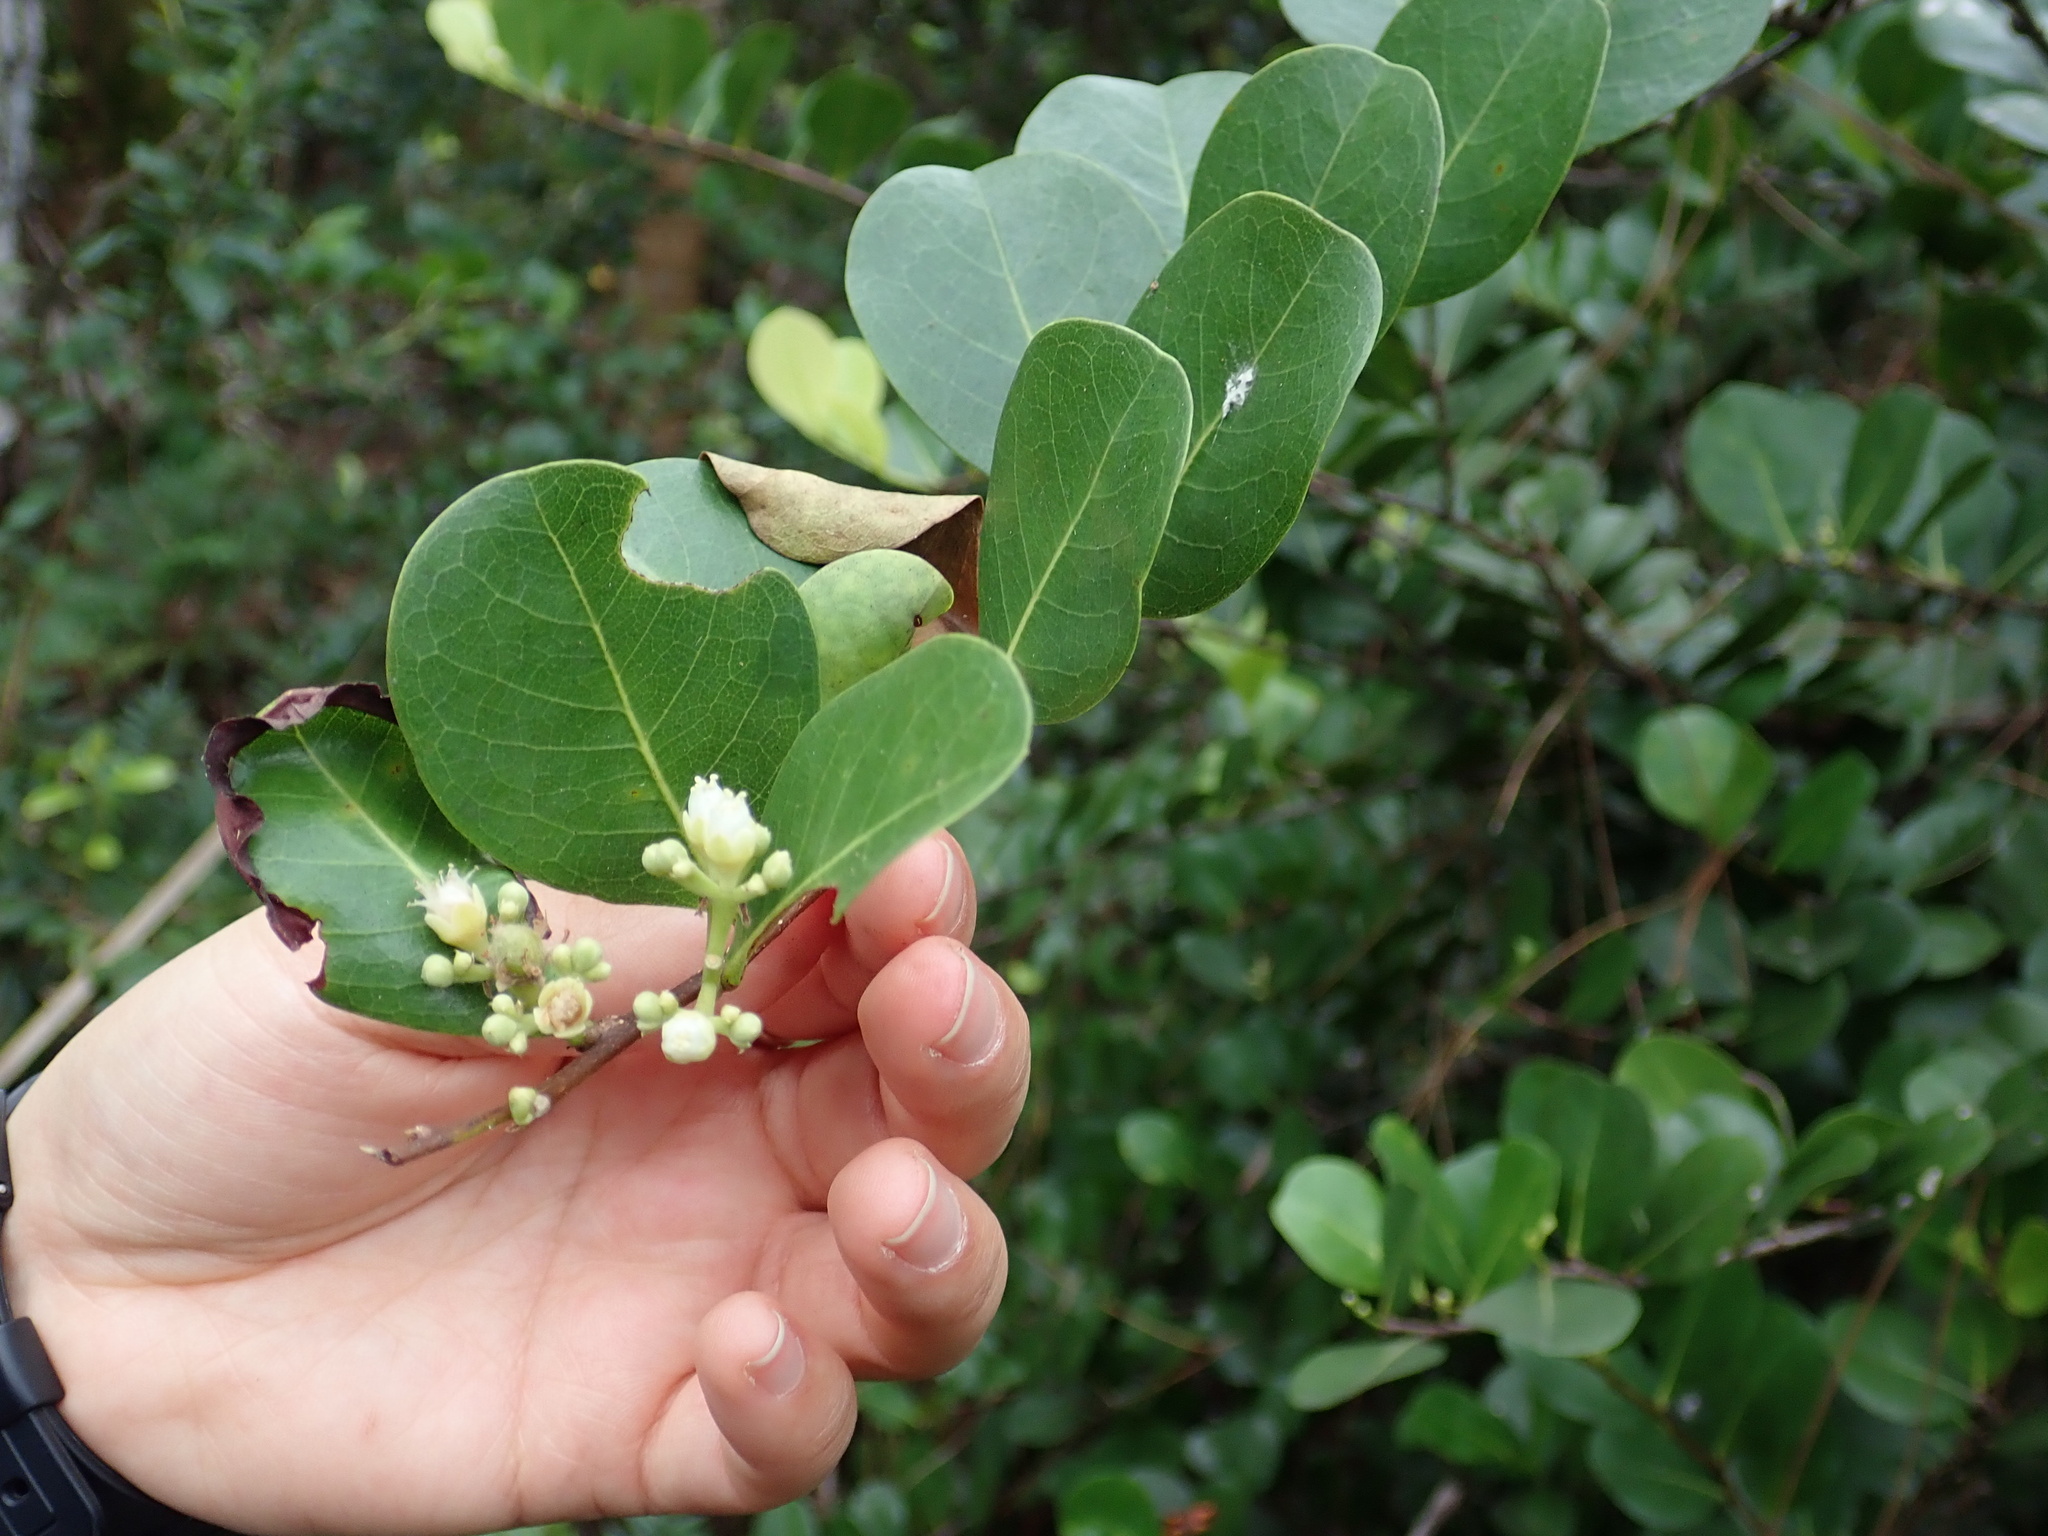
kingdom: Plantae
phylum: Tracheophyta
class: Magnoliopsida
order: Malpighiales
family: Chrysobalanaceae
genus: Chrysobalanus
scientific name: Chrysobalanus icaco
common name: Coco plum
